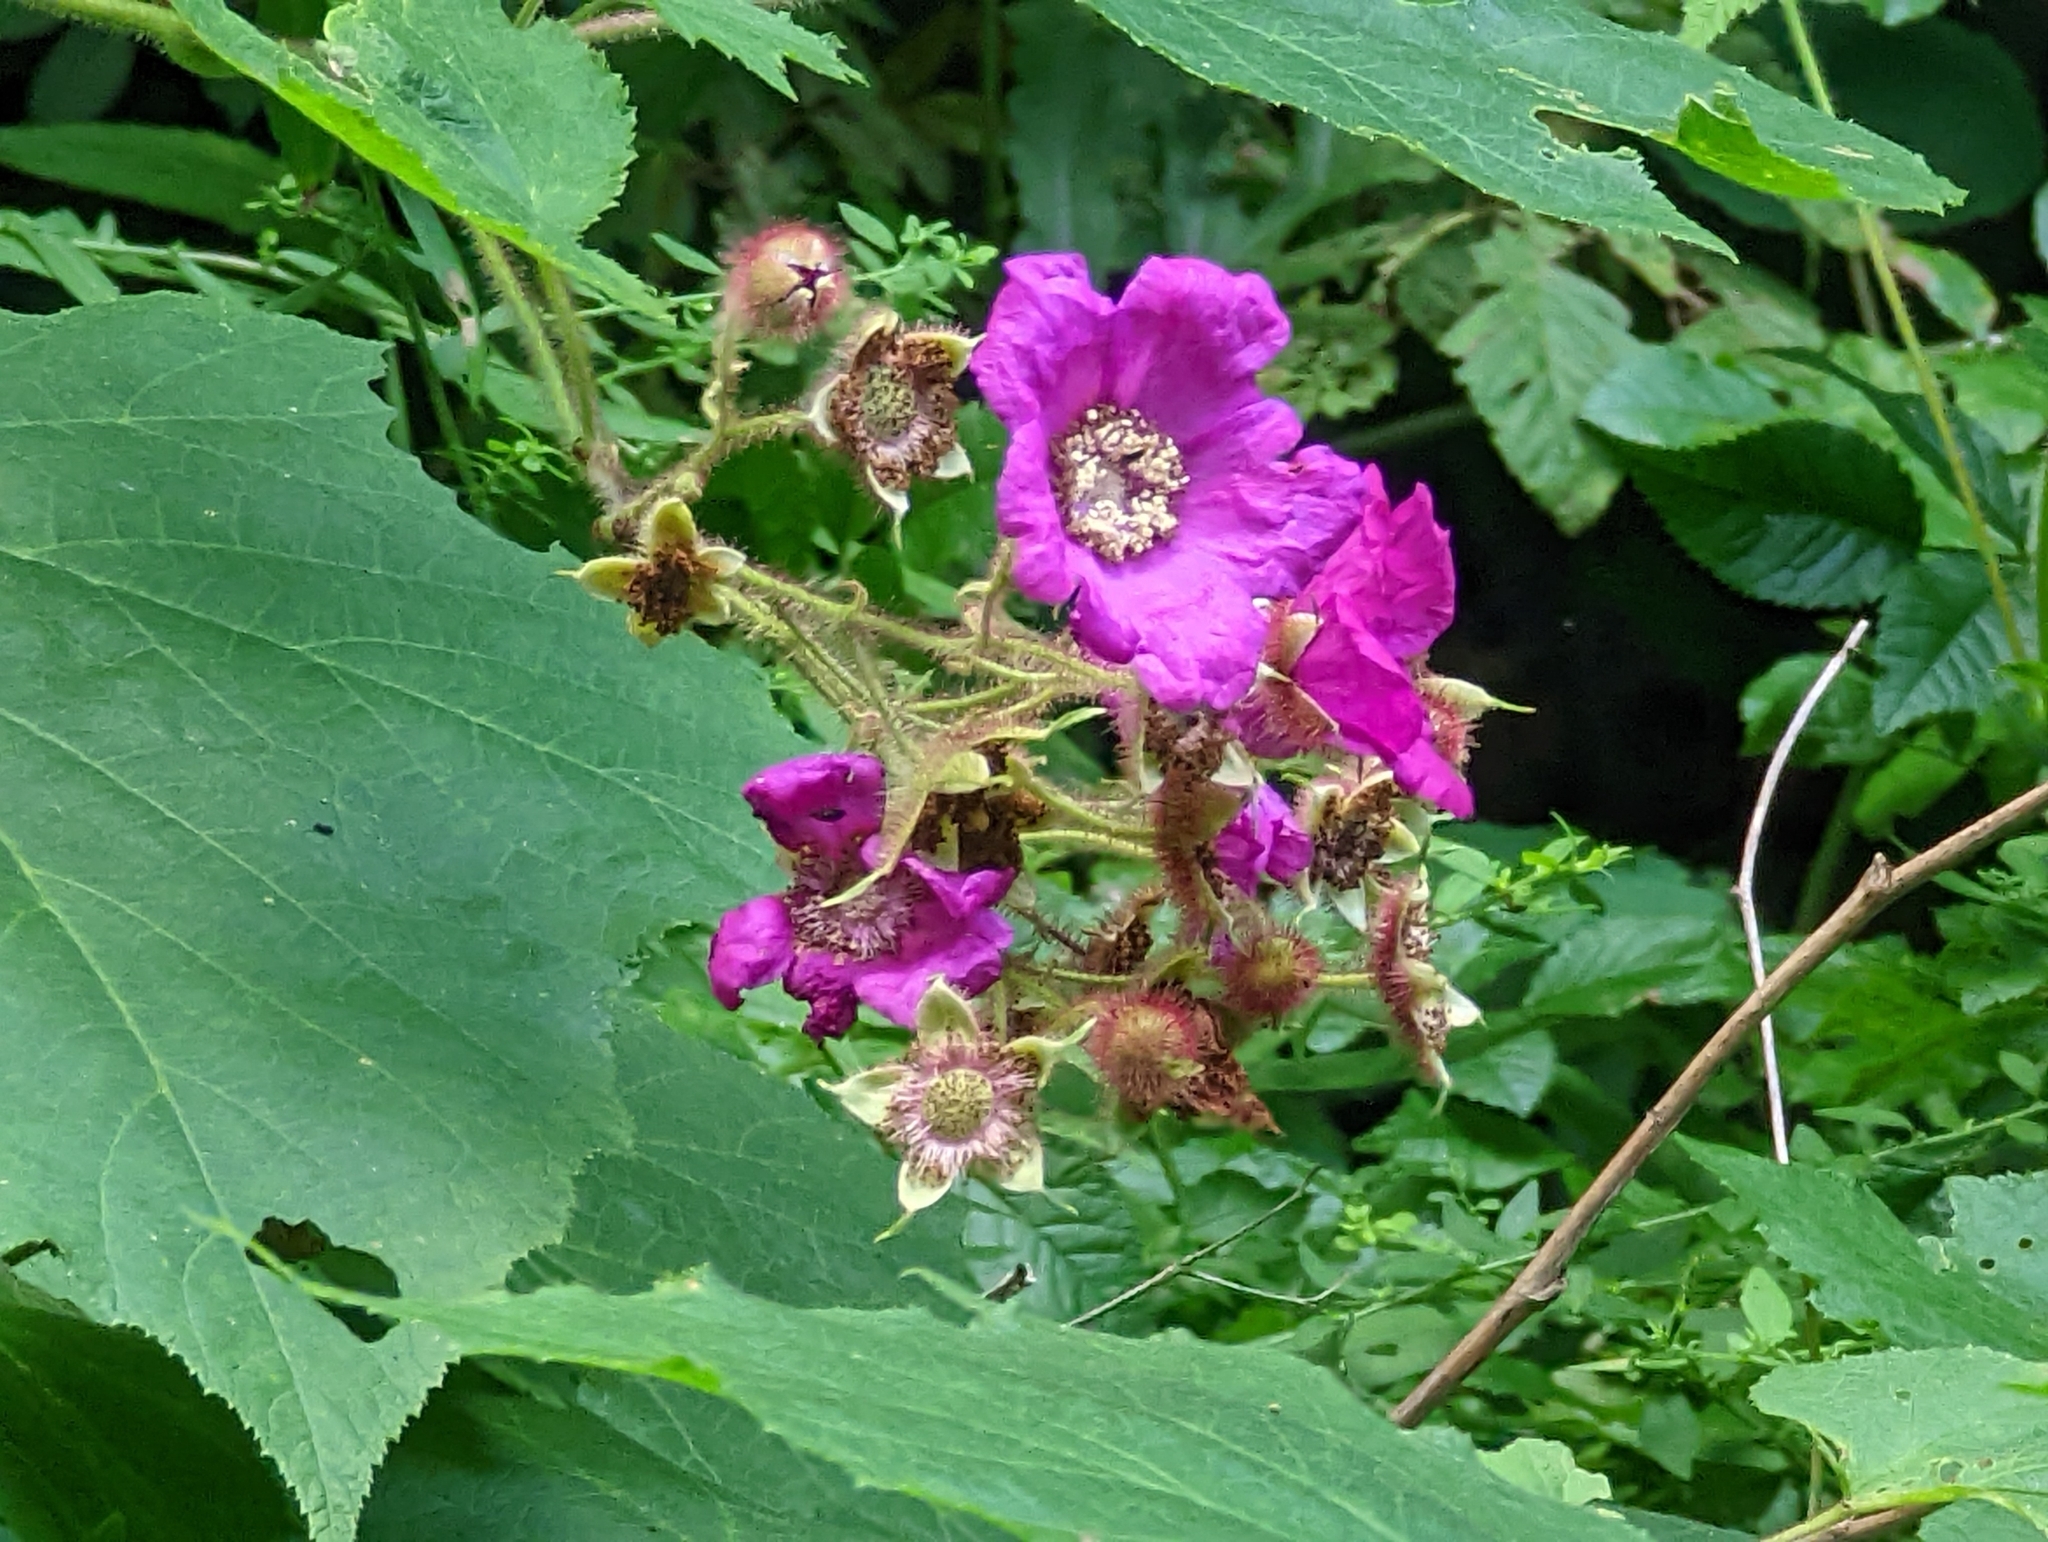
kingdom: Plantae
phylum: Tracheophyta
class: Magnoliopsida
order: Rosales
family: Rosaceae
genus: Rubus
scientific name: Rubus odoratus
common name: Purple-flowered raspberry
